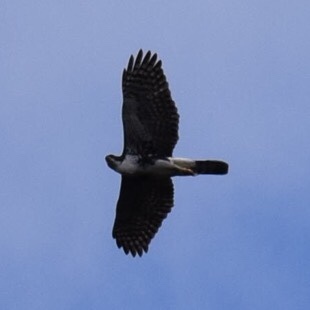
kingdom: Animalia
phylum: Chordata
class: Aves
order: Accipitriformes
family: Accipitridae
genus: Accipiter
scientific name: Accipiter melanoleucus
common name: Black sparrowhawk
